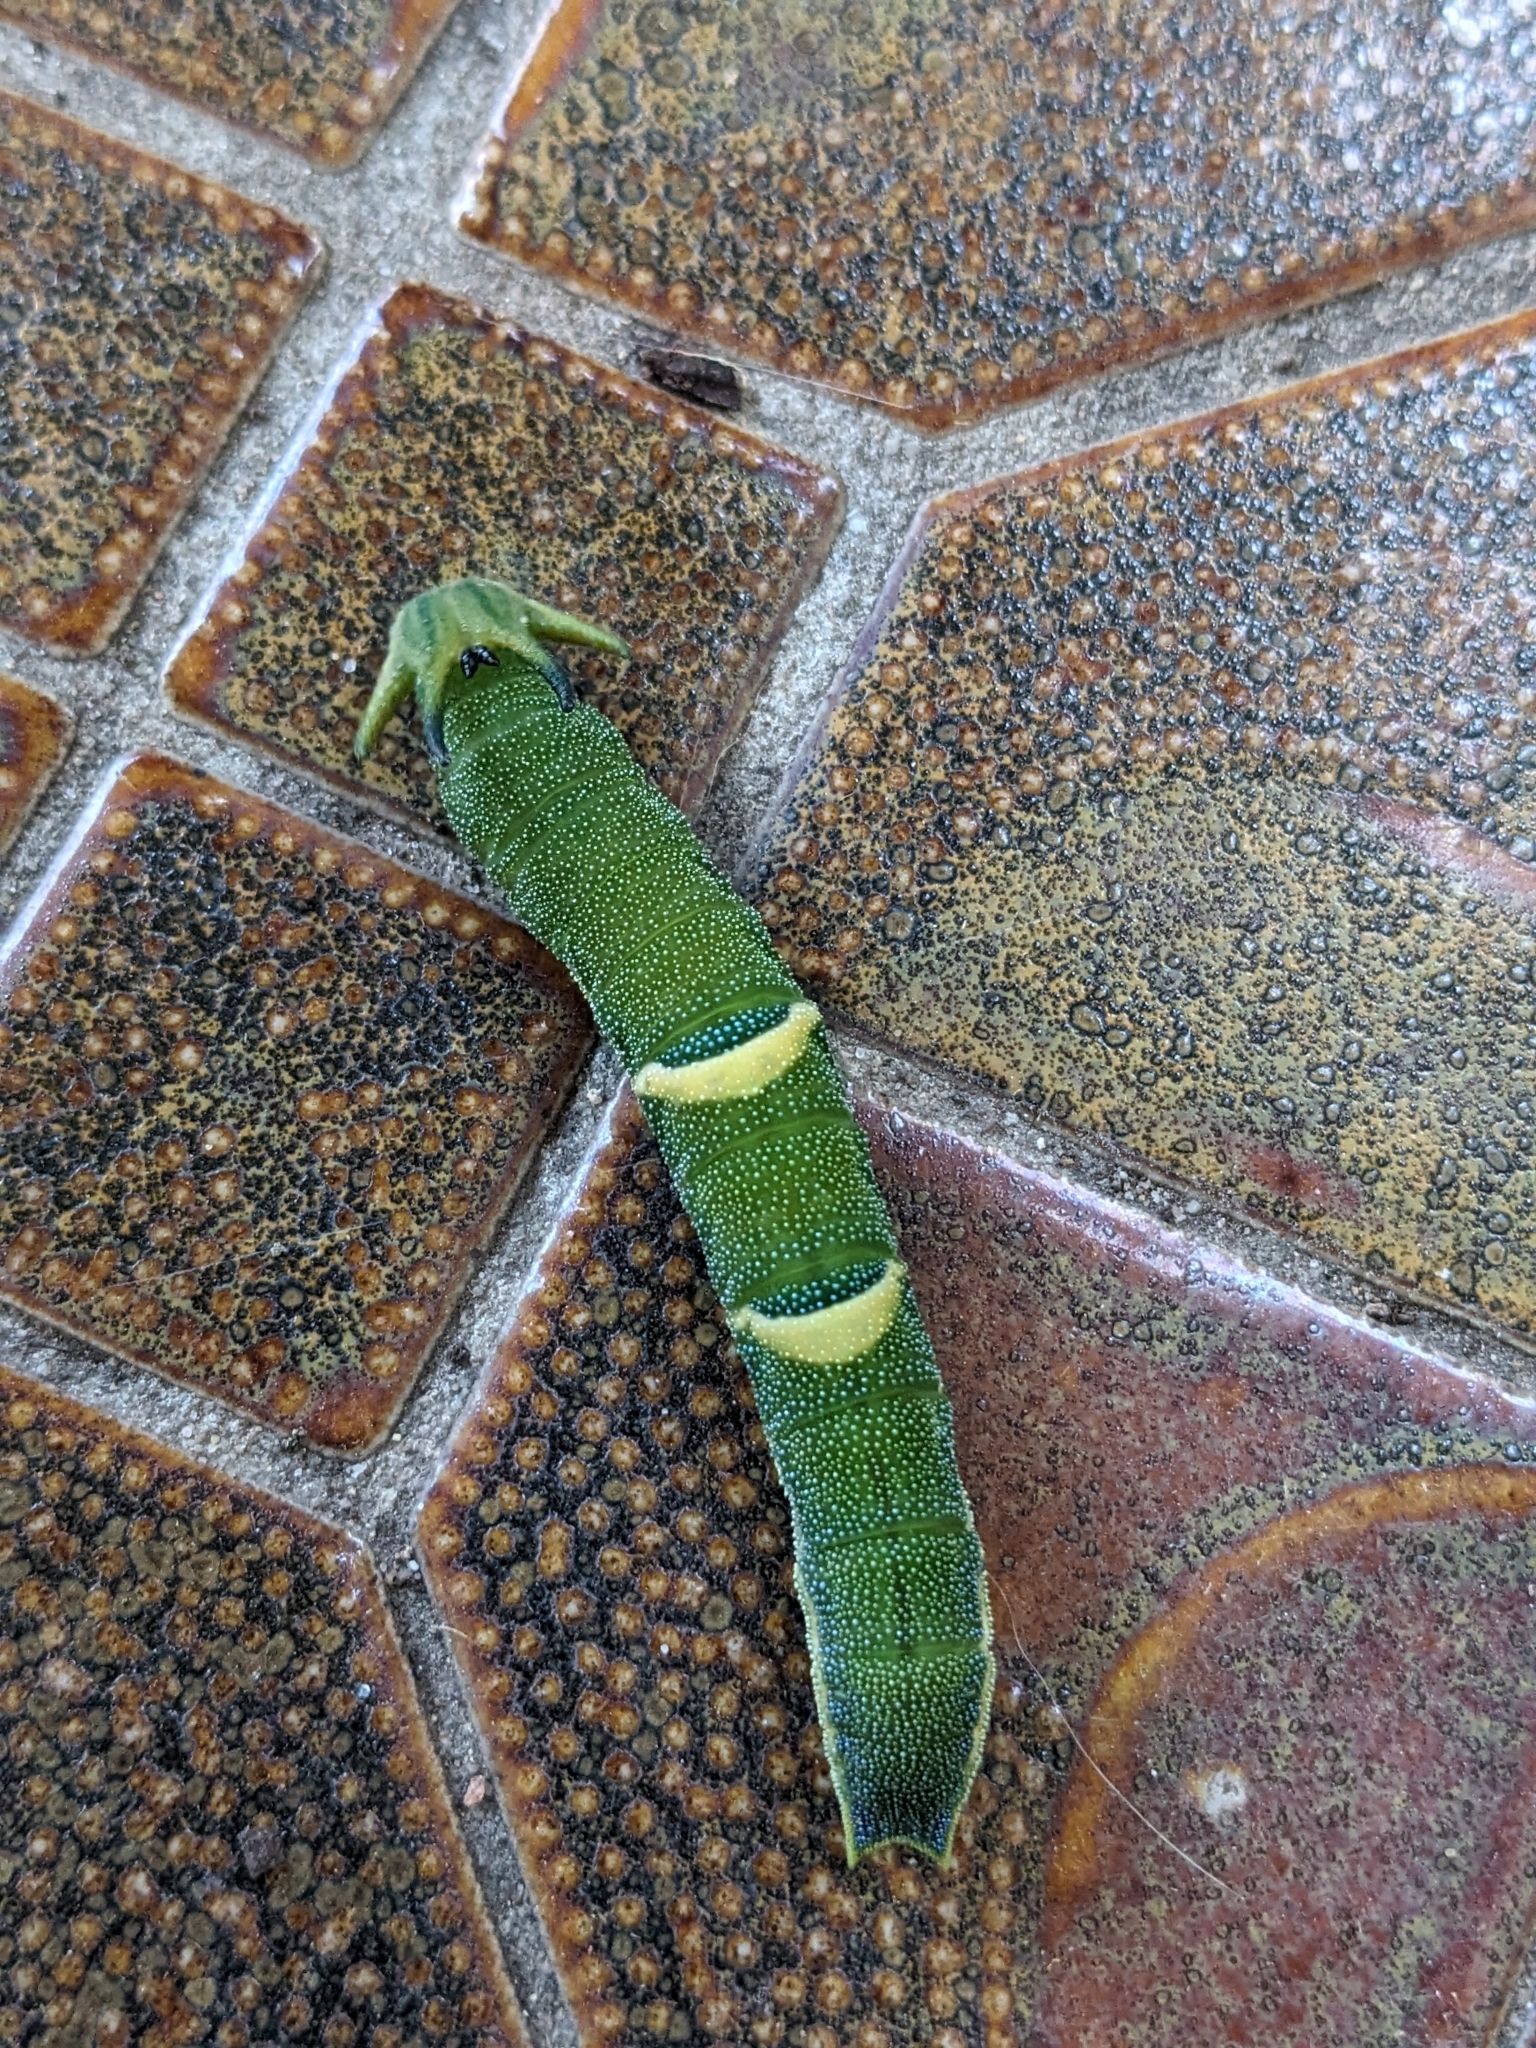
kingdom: Animalia
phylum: Arthropoda
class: Insecta
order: Lepidoptera
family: Nymphalidae
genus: Charaxes
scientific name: Charaxes
